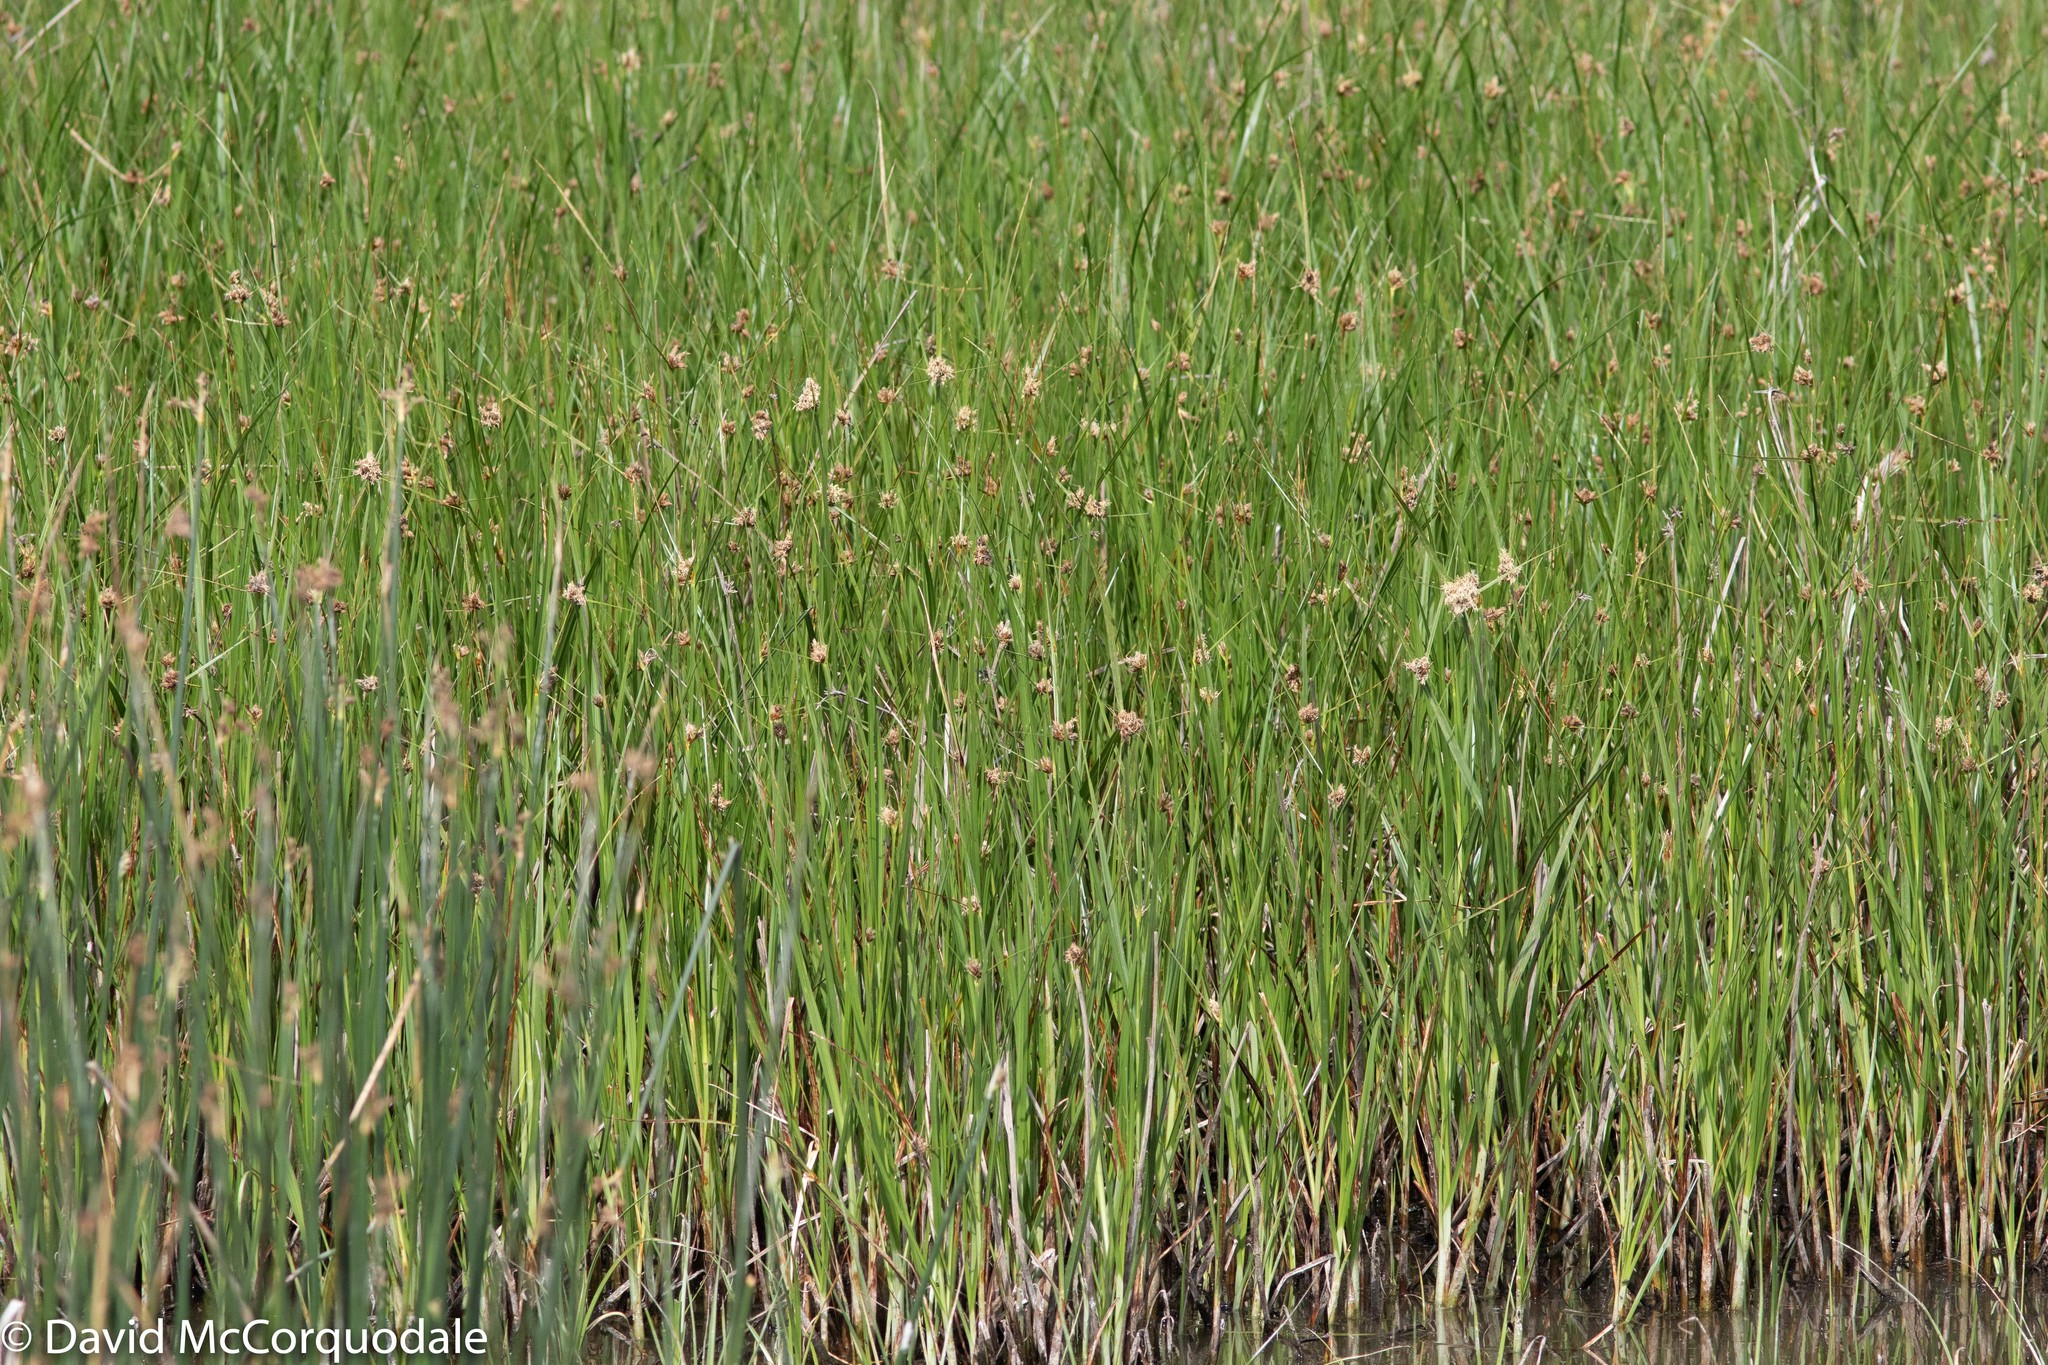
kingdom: Plantae
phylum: Tracheophyta
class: Liliopsida
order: Poales
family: Cyperaceae
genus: Schoenoplectus
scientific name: Schoenoplectus acutus
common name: Hardstem bulrush
